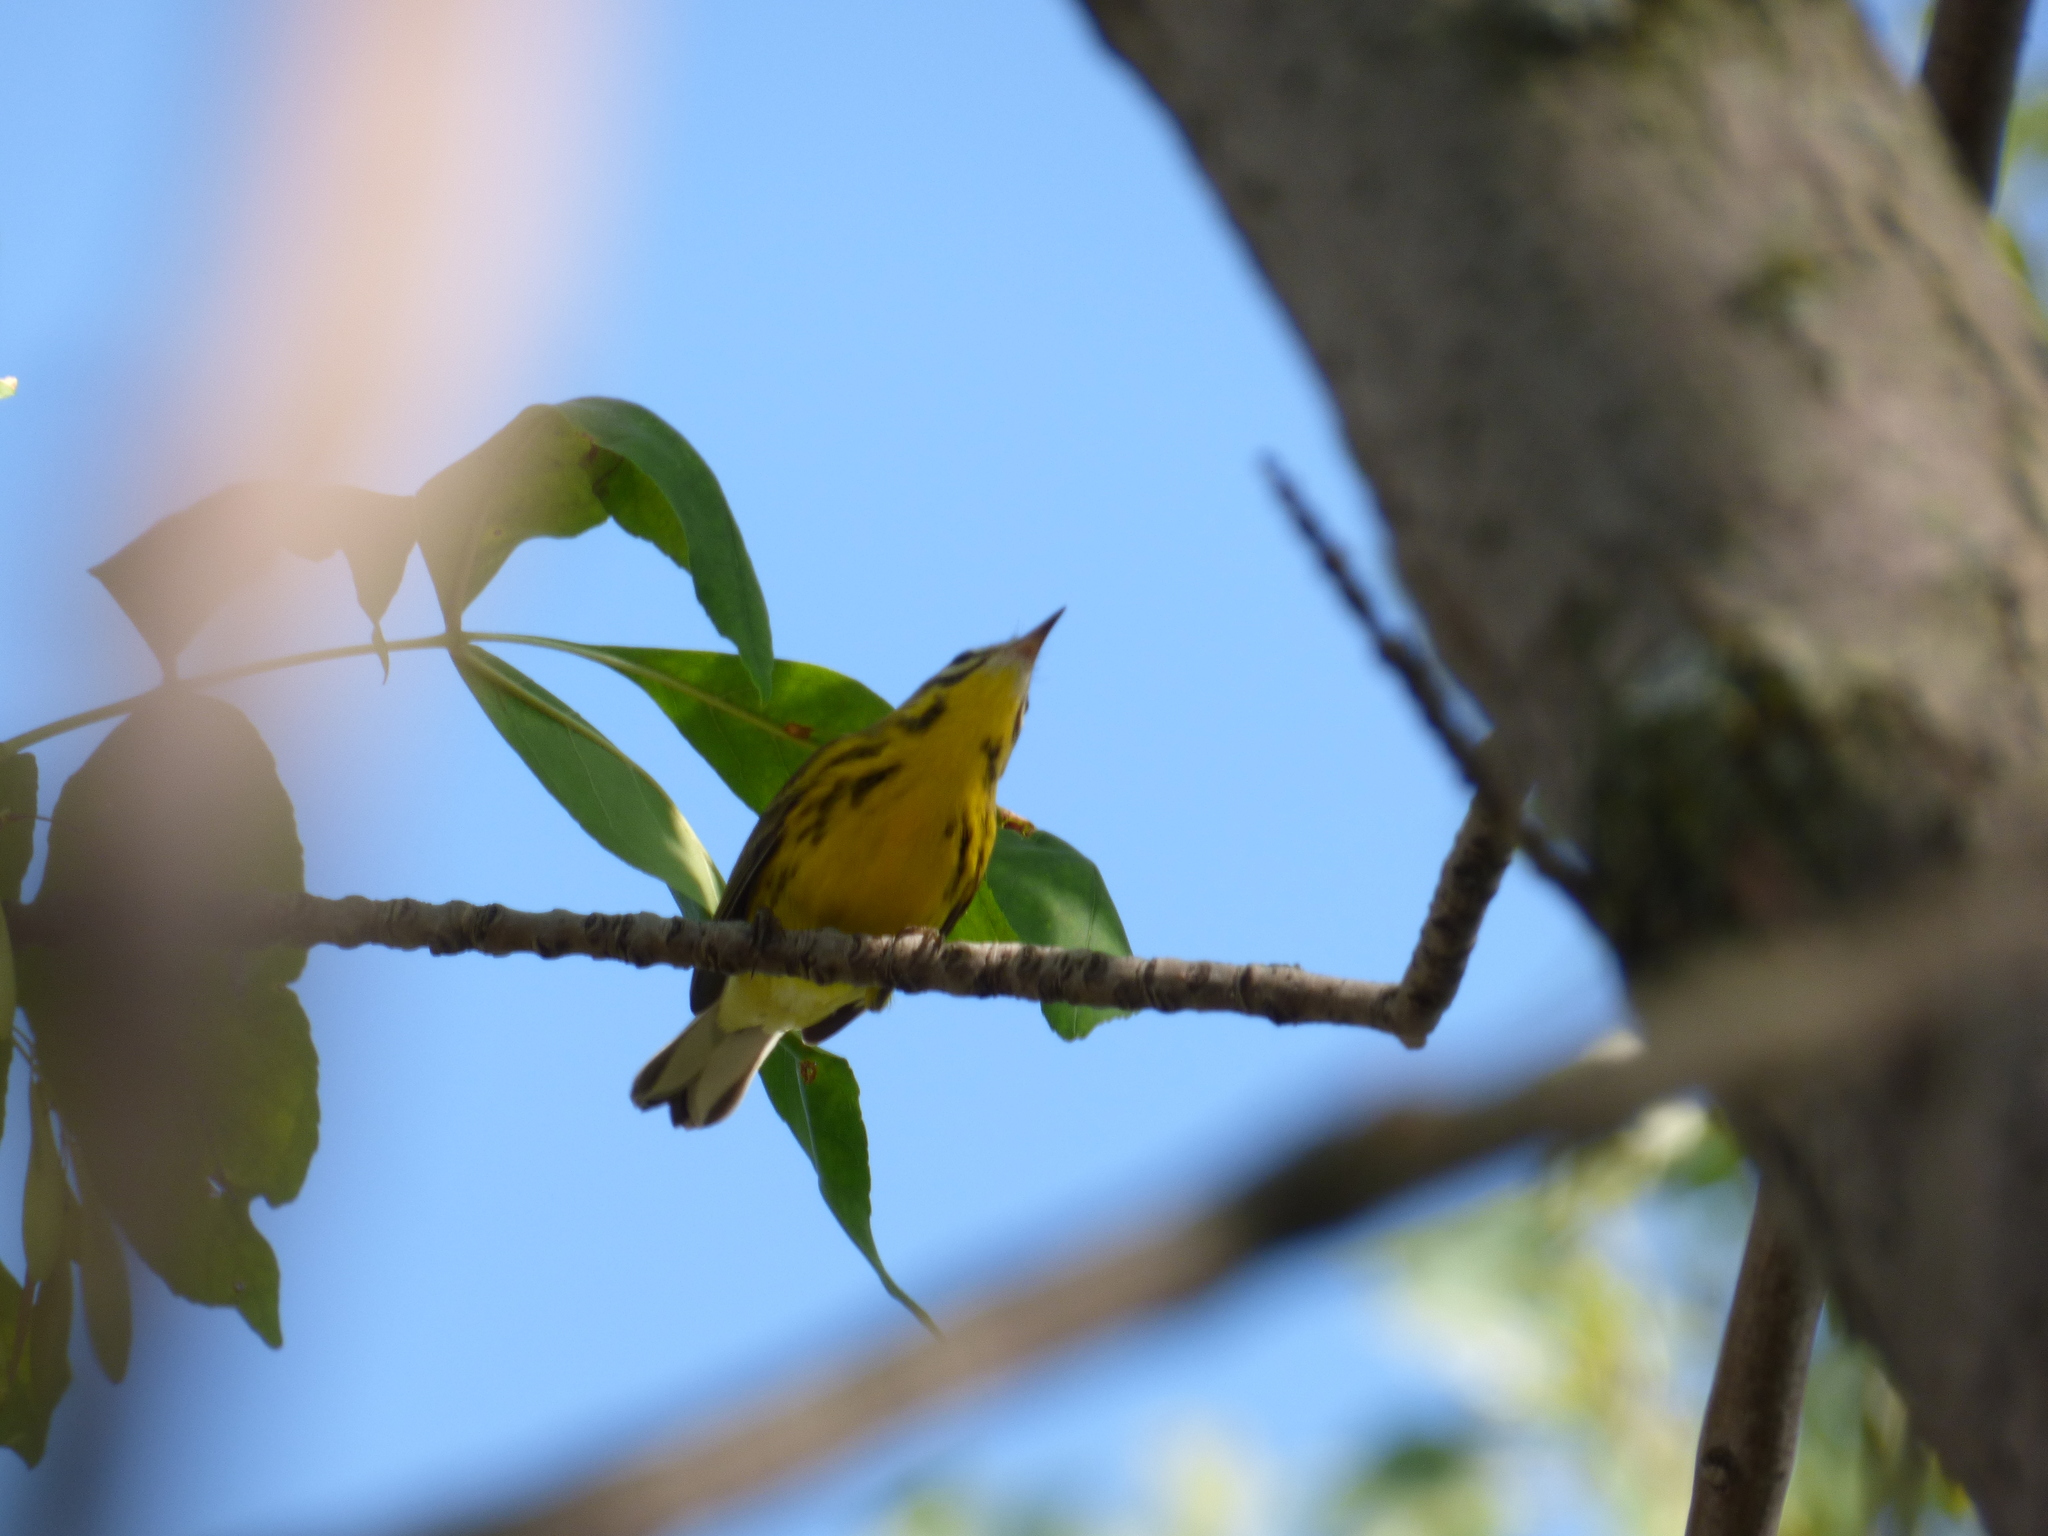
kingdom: Animalia
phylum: Chordata
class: Aves
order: Passeriformes
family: Parulidae
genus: Setophaga
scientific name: Setophaga discolor
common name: Prairie warbler
